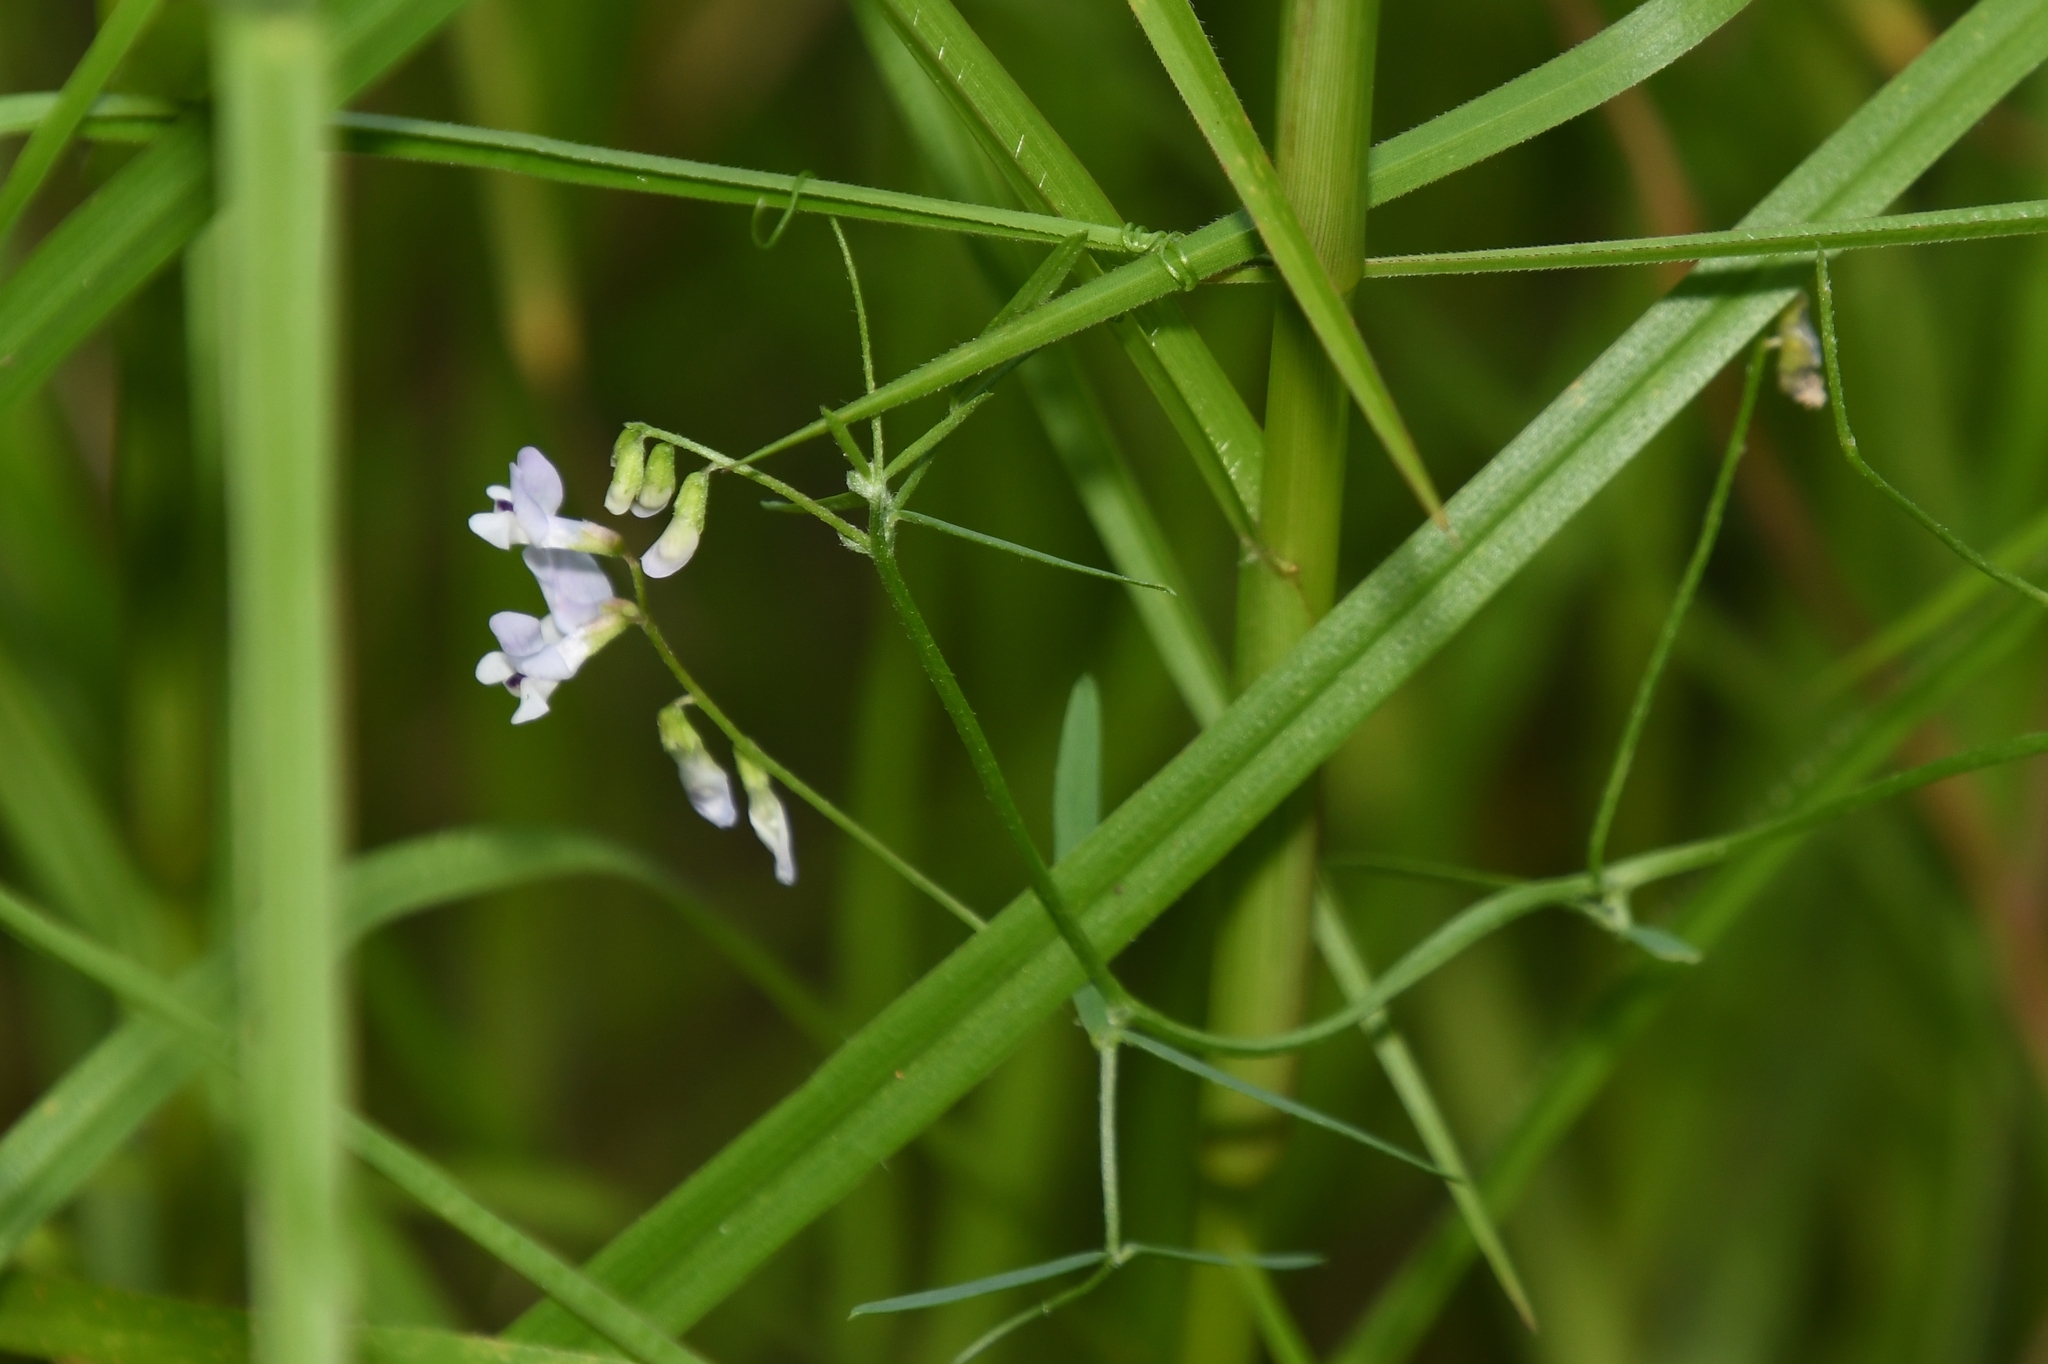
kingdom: Plantae
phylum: Tracheophyta
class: Magnoliopsida
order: Fabales
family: Fabaceae
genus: Vicia
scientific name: Vicia acutifolia
